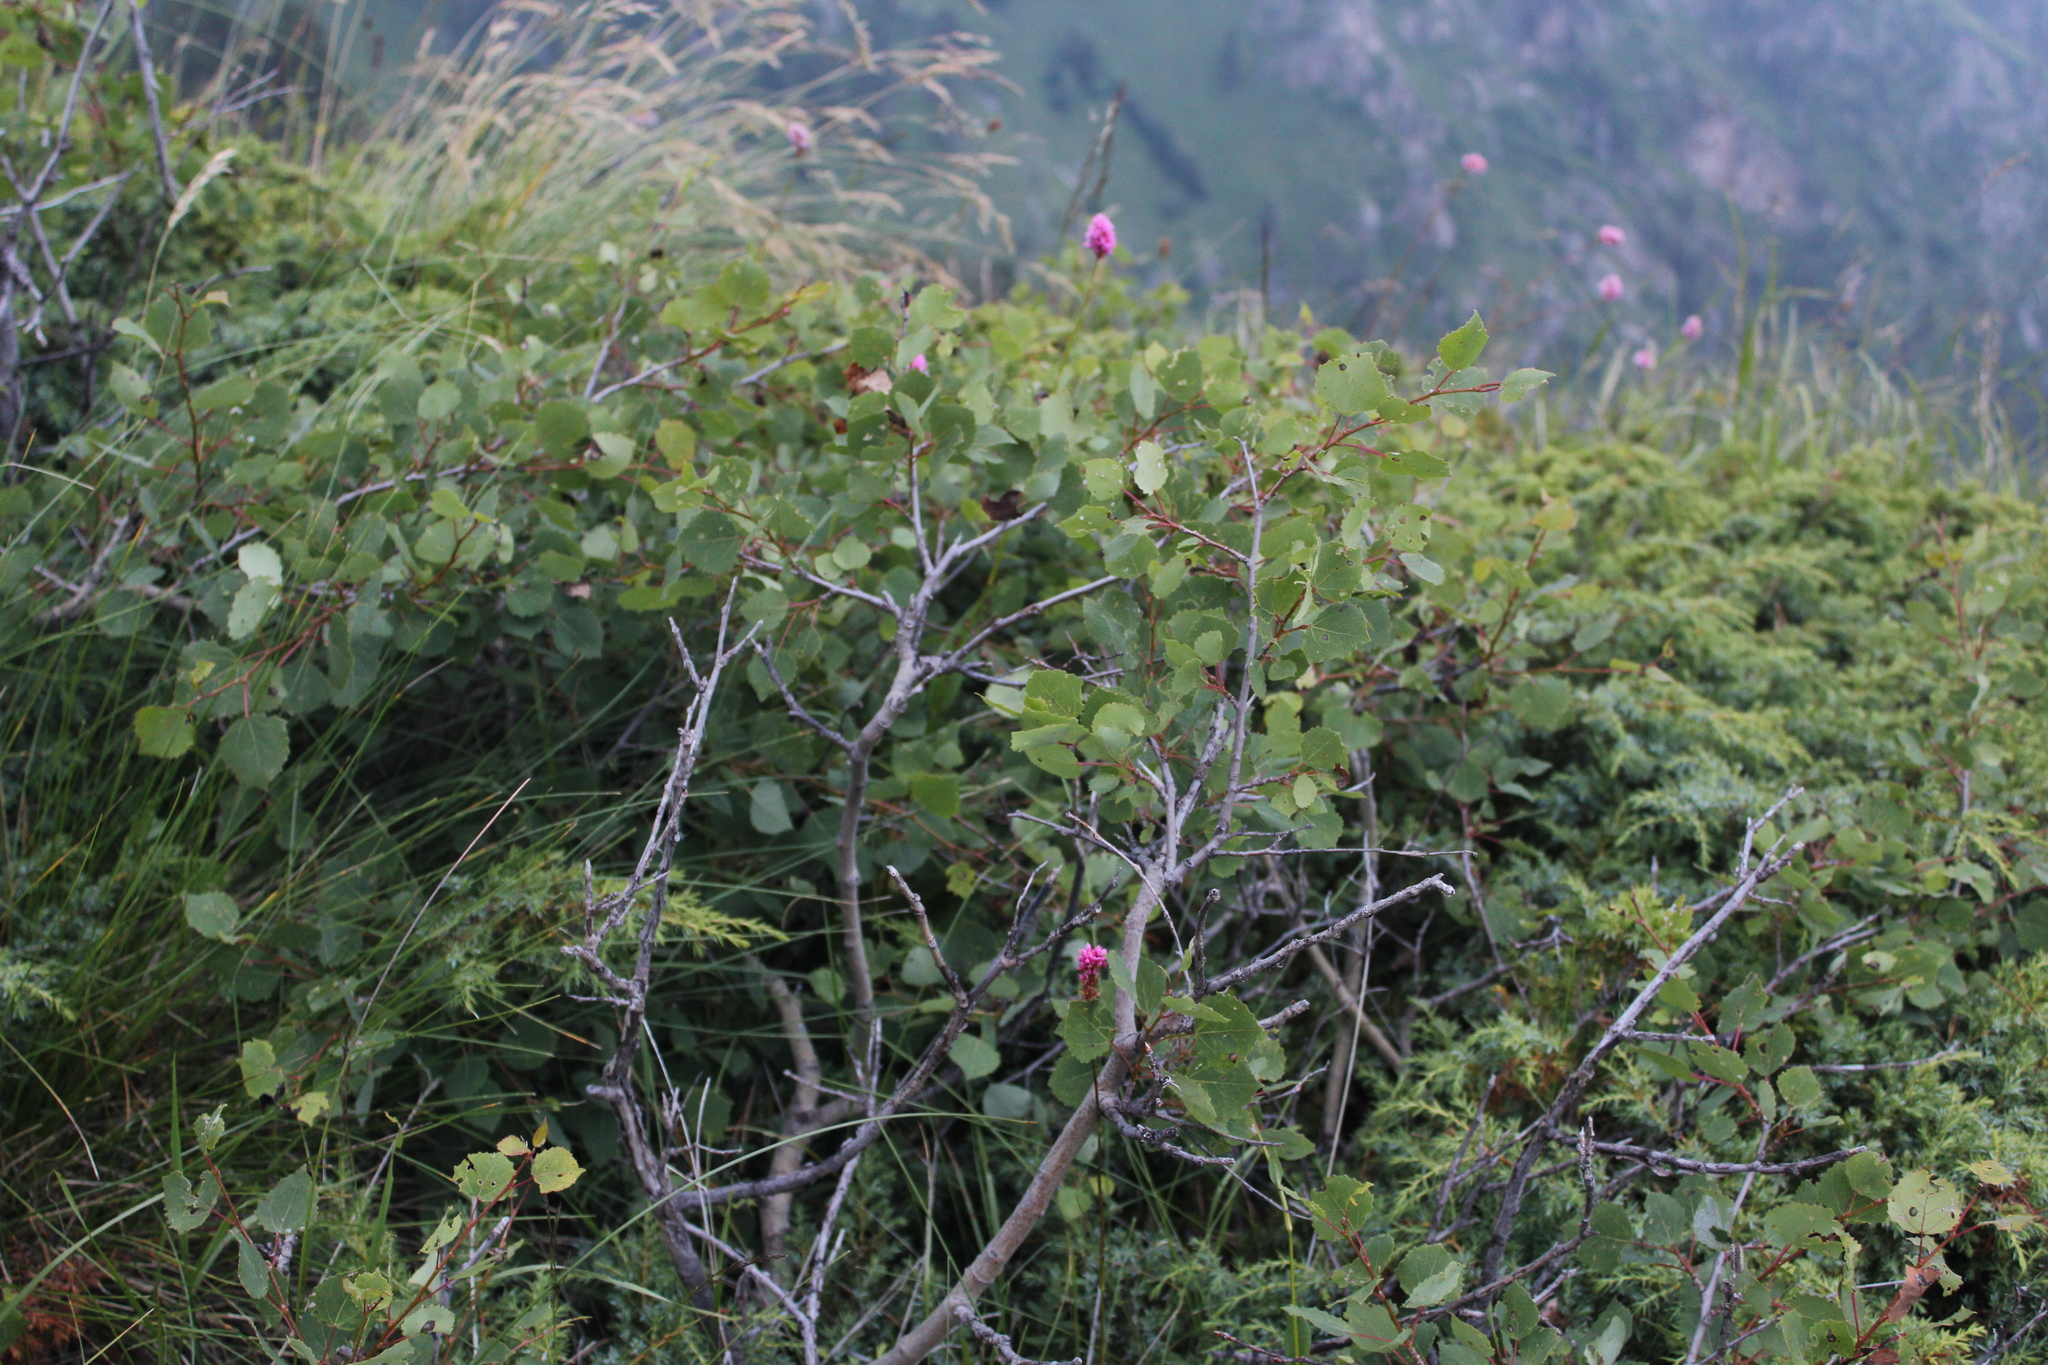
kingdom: Plantae
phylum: Tracheophyta
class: Magnoliopsida
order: Malpighiales
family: Salicaceae
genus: Populus
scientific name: Populus tremula
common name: European aspen
